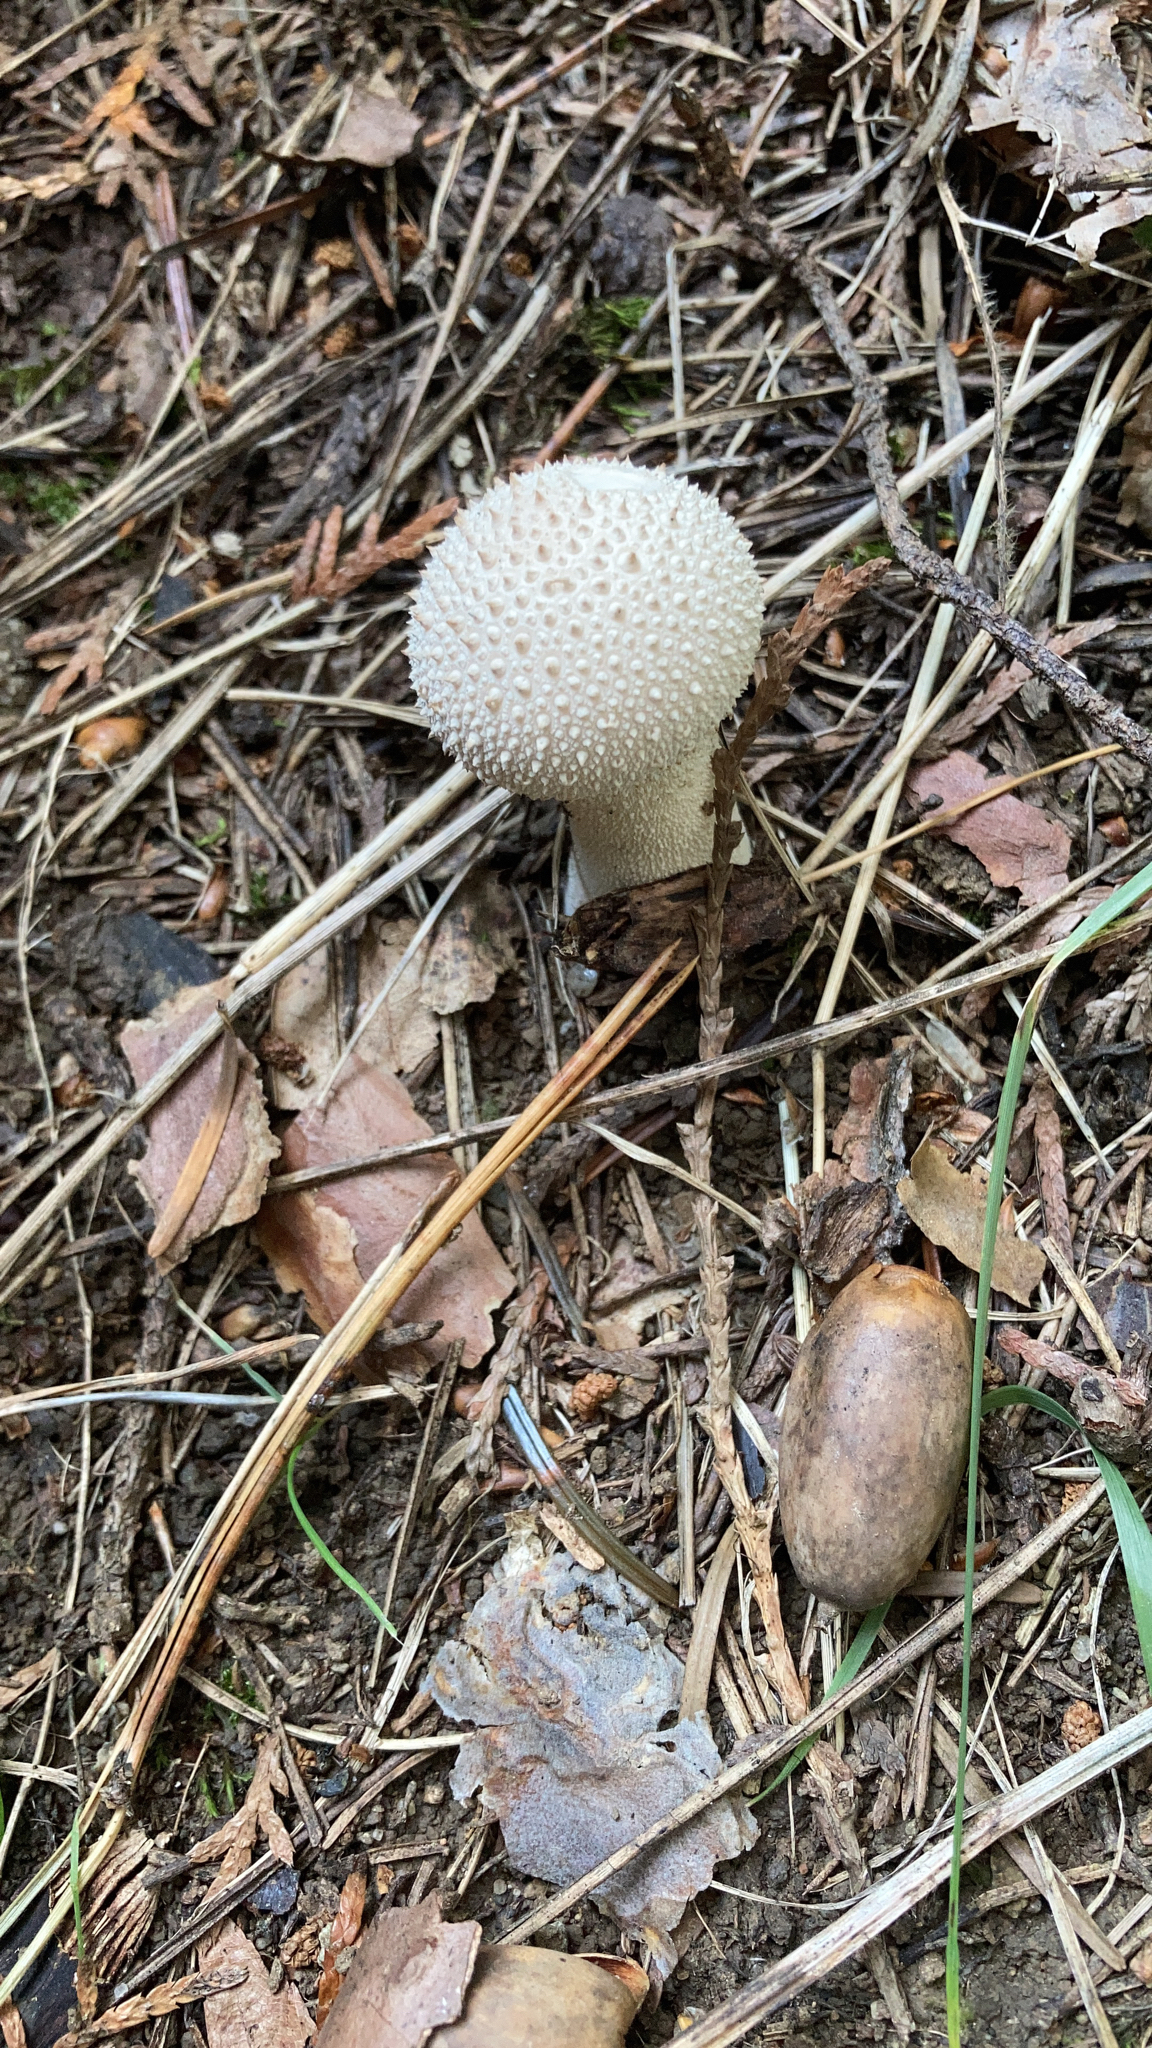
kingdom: Fungi
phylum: Basidiomycota
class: Agaricomycetes
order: Agaricales
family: Lycoperdaceae
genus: Lycoperdon
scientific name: Lycoperdon perlatum
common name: Common puffball
